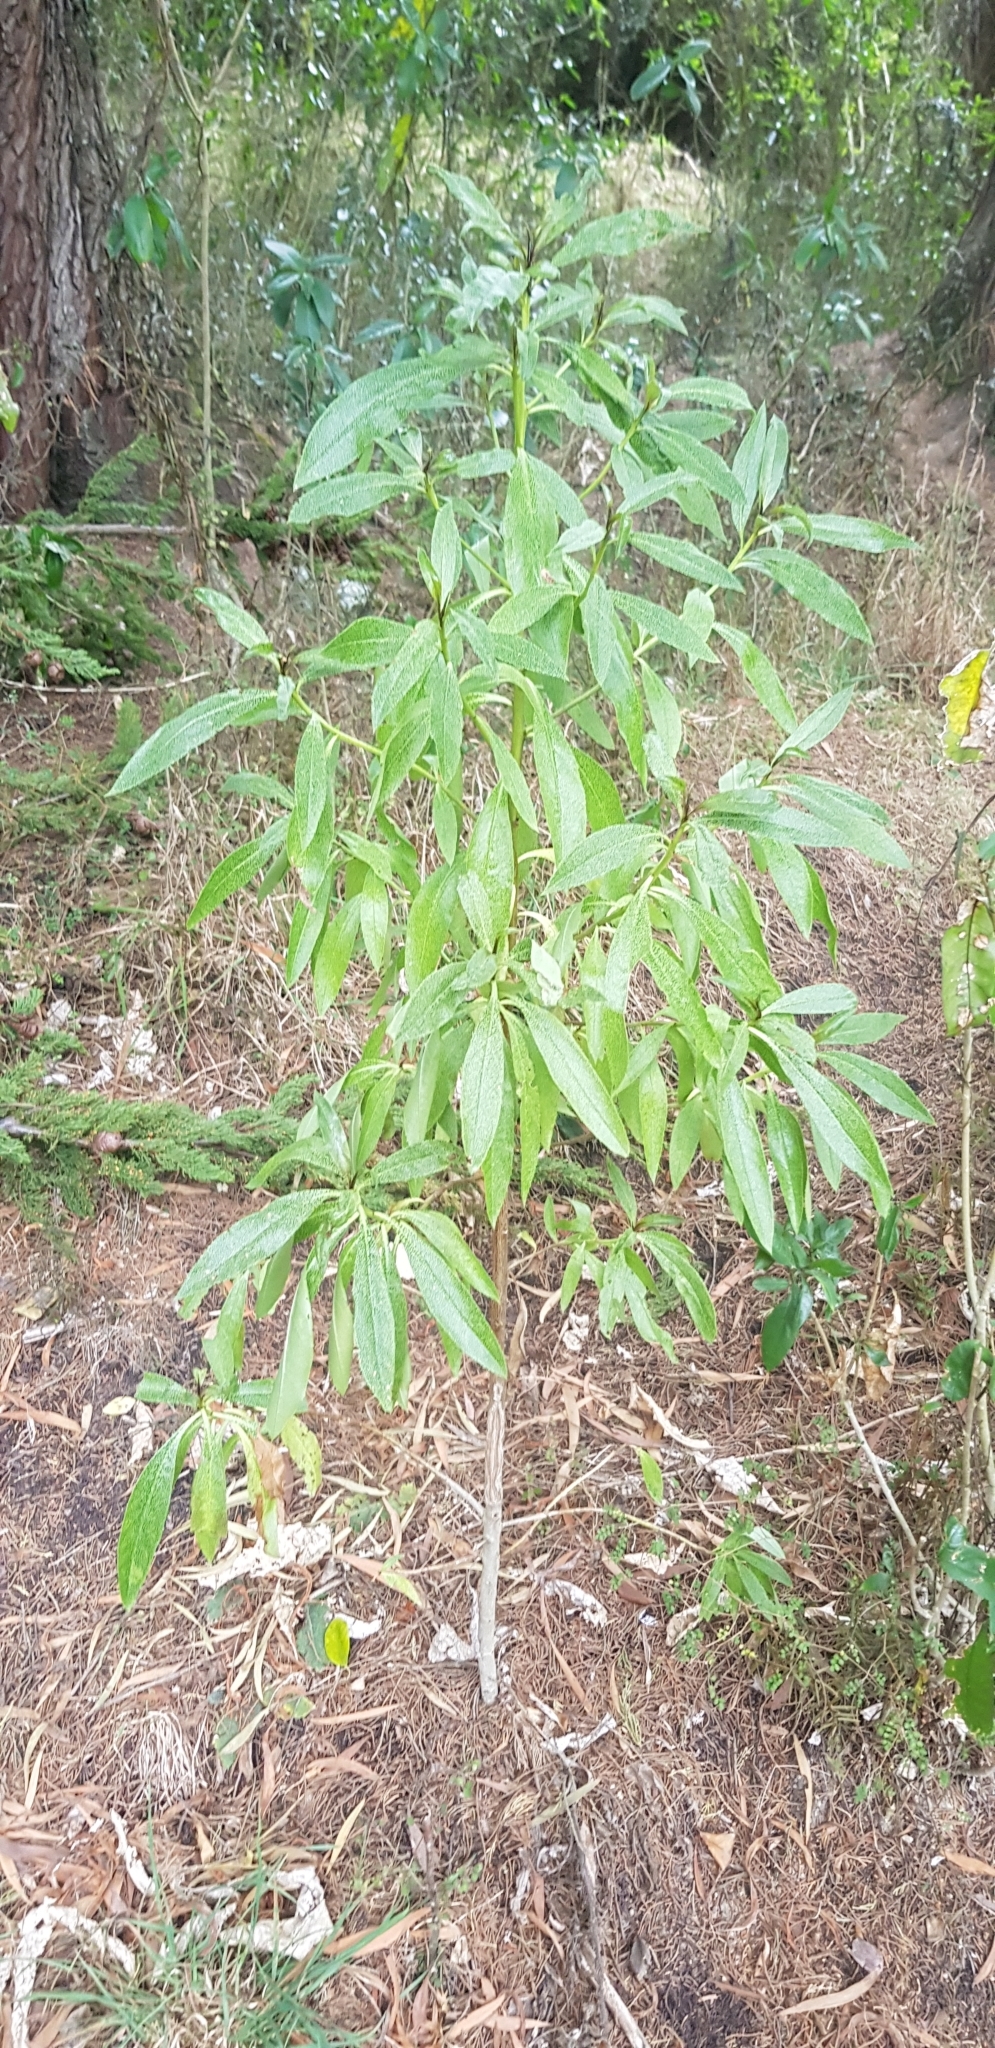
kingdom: Plantae
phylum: Tracheophyta
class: Magnoliopsida
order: Lamiales
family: Scrophulariaceae
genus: Myoporum
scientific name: Myoporum laetum
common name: Ngaio tree
